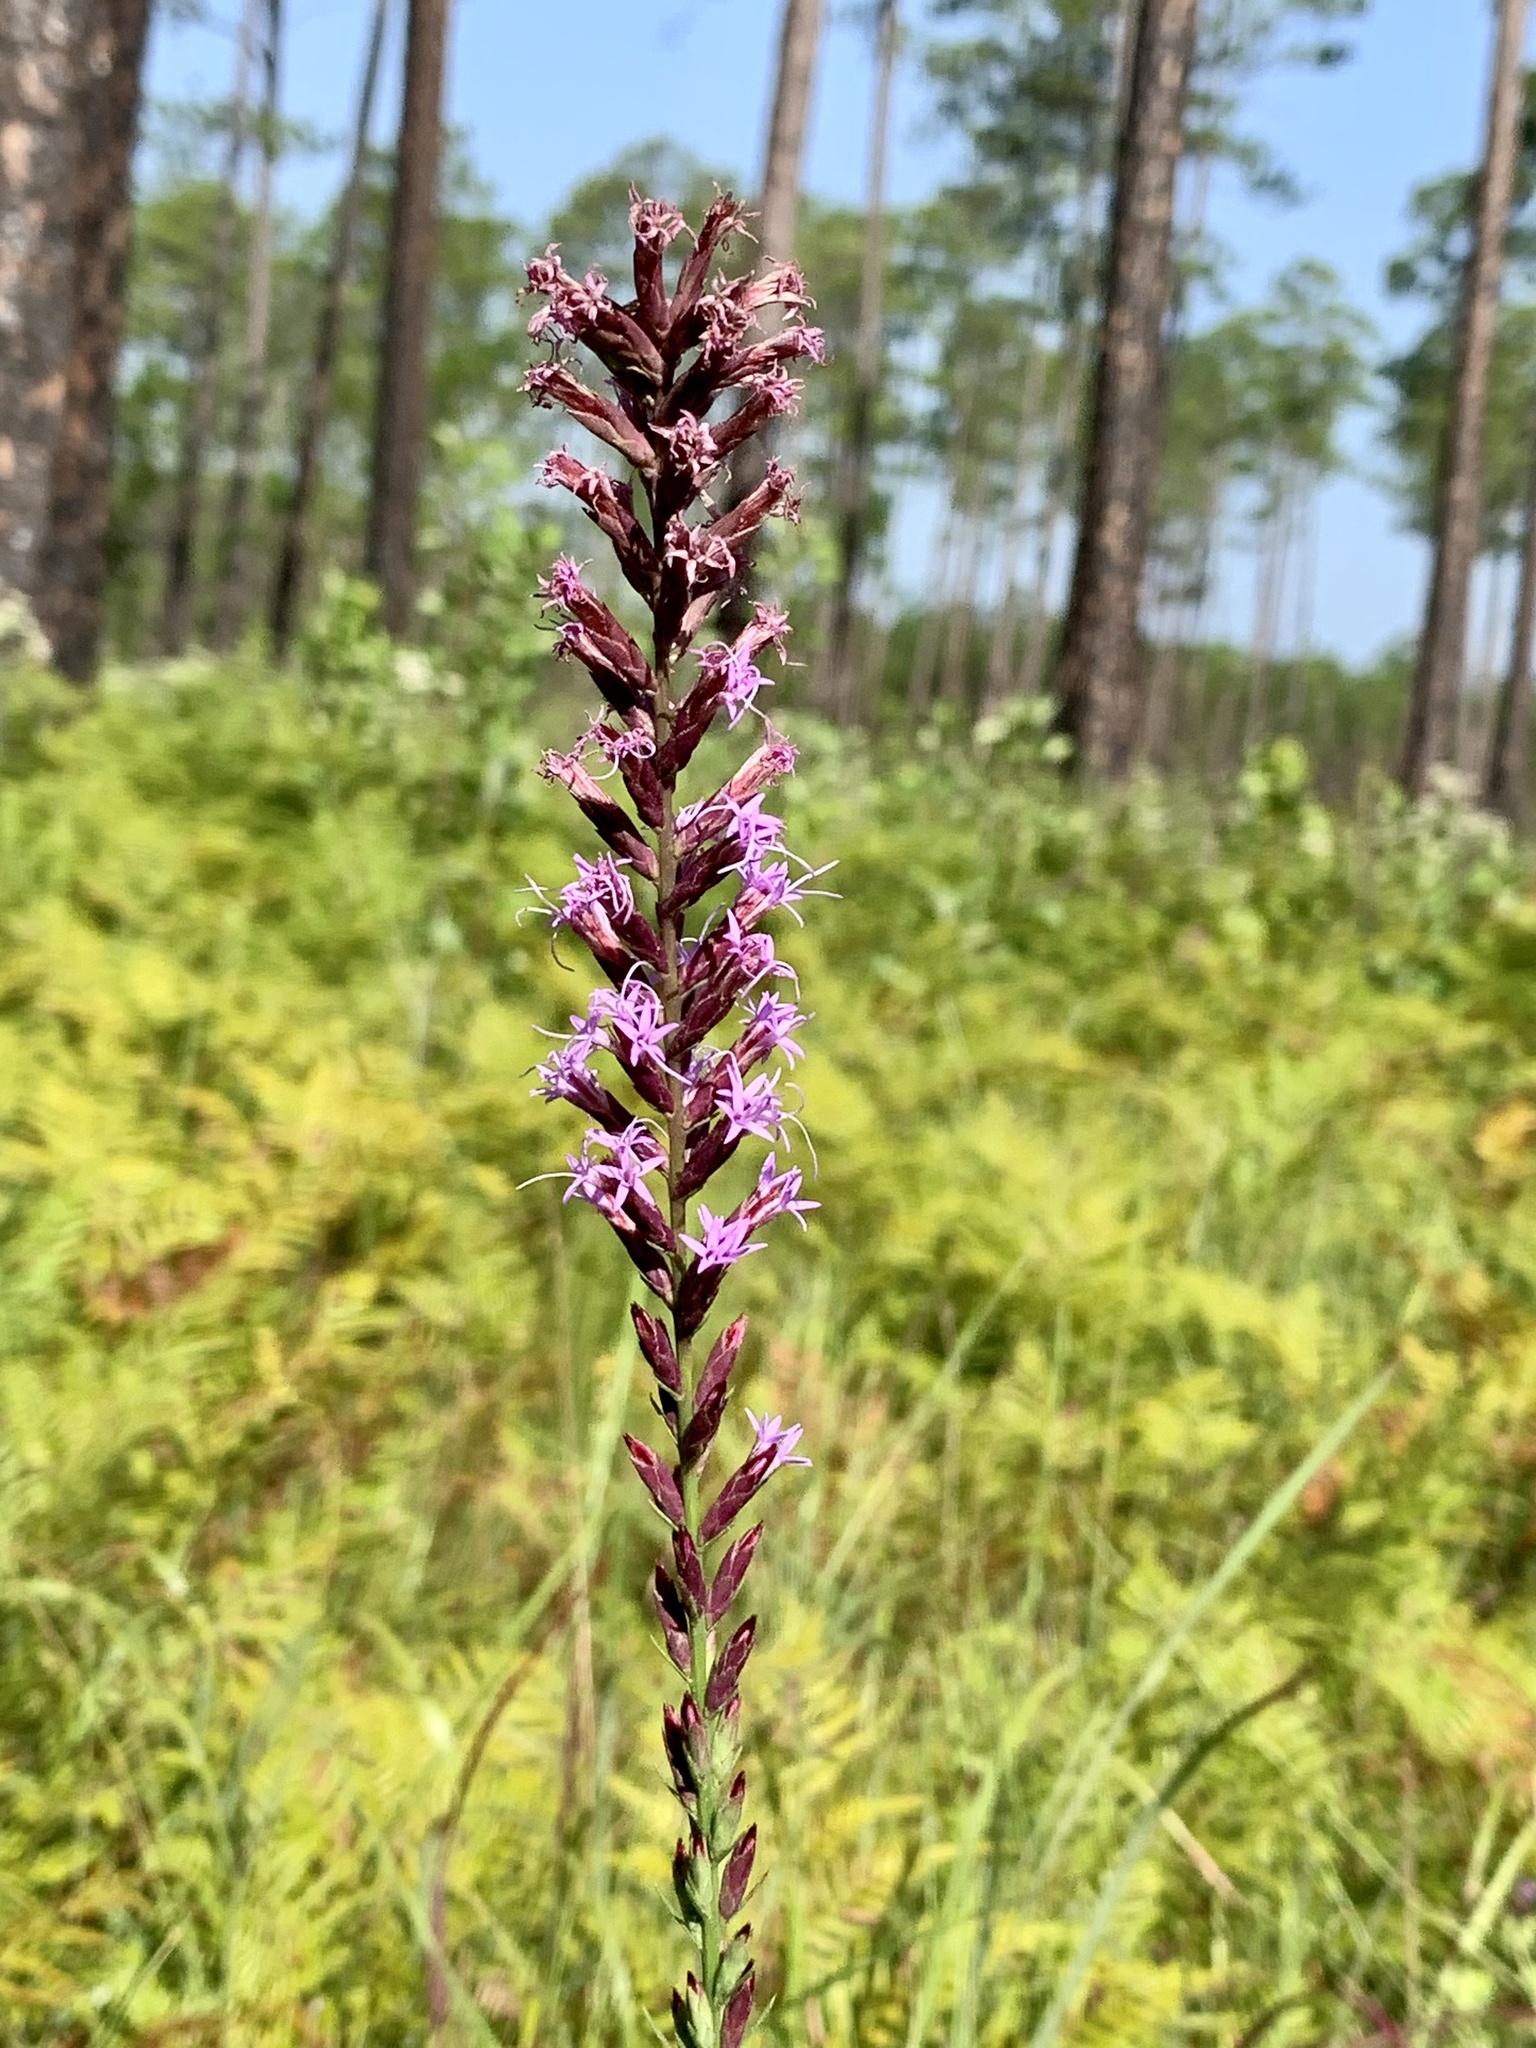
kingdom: Plantae
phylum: Tracheophyta
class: Magnoliopsida
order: Asterales
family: Asteraceae
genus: Liatris
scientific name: Liatris acidota
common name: Gulf coast gayfeather
